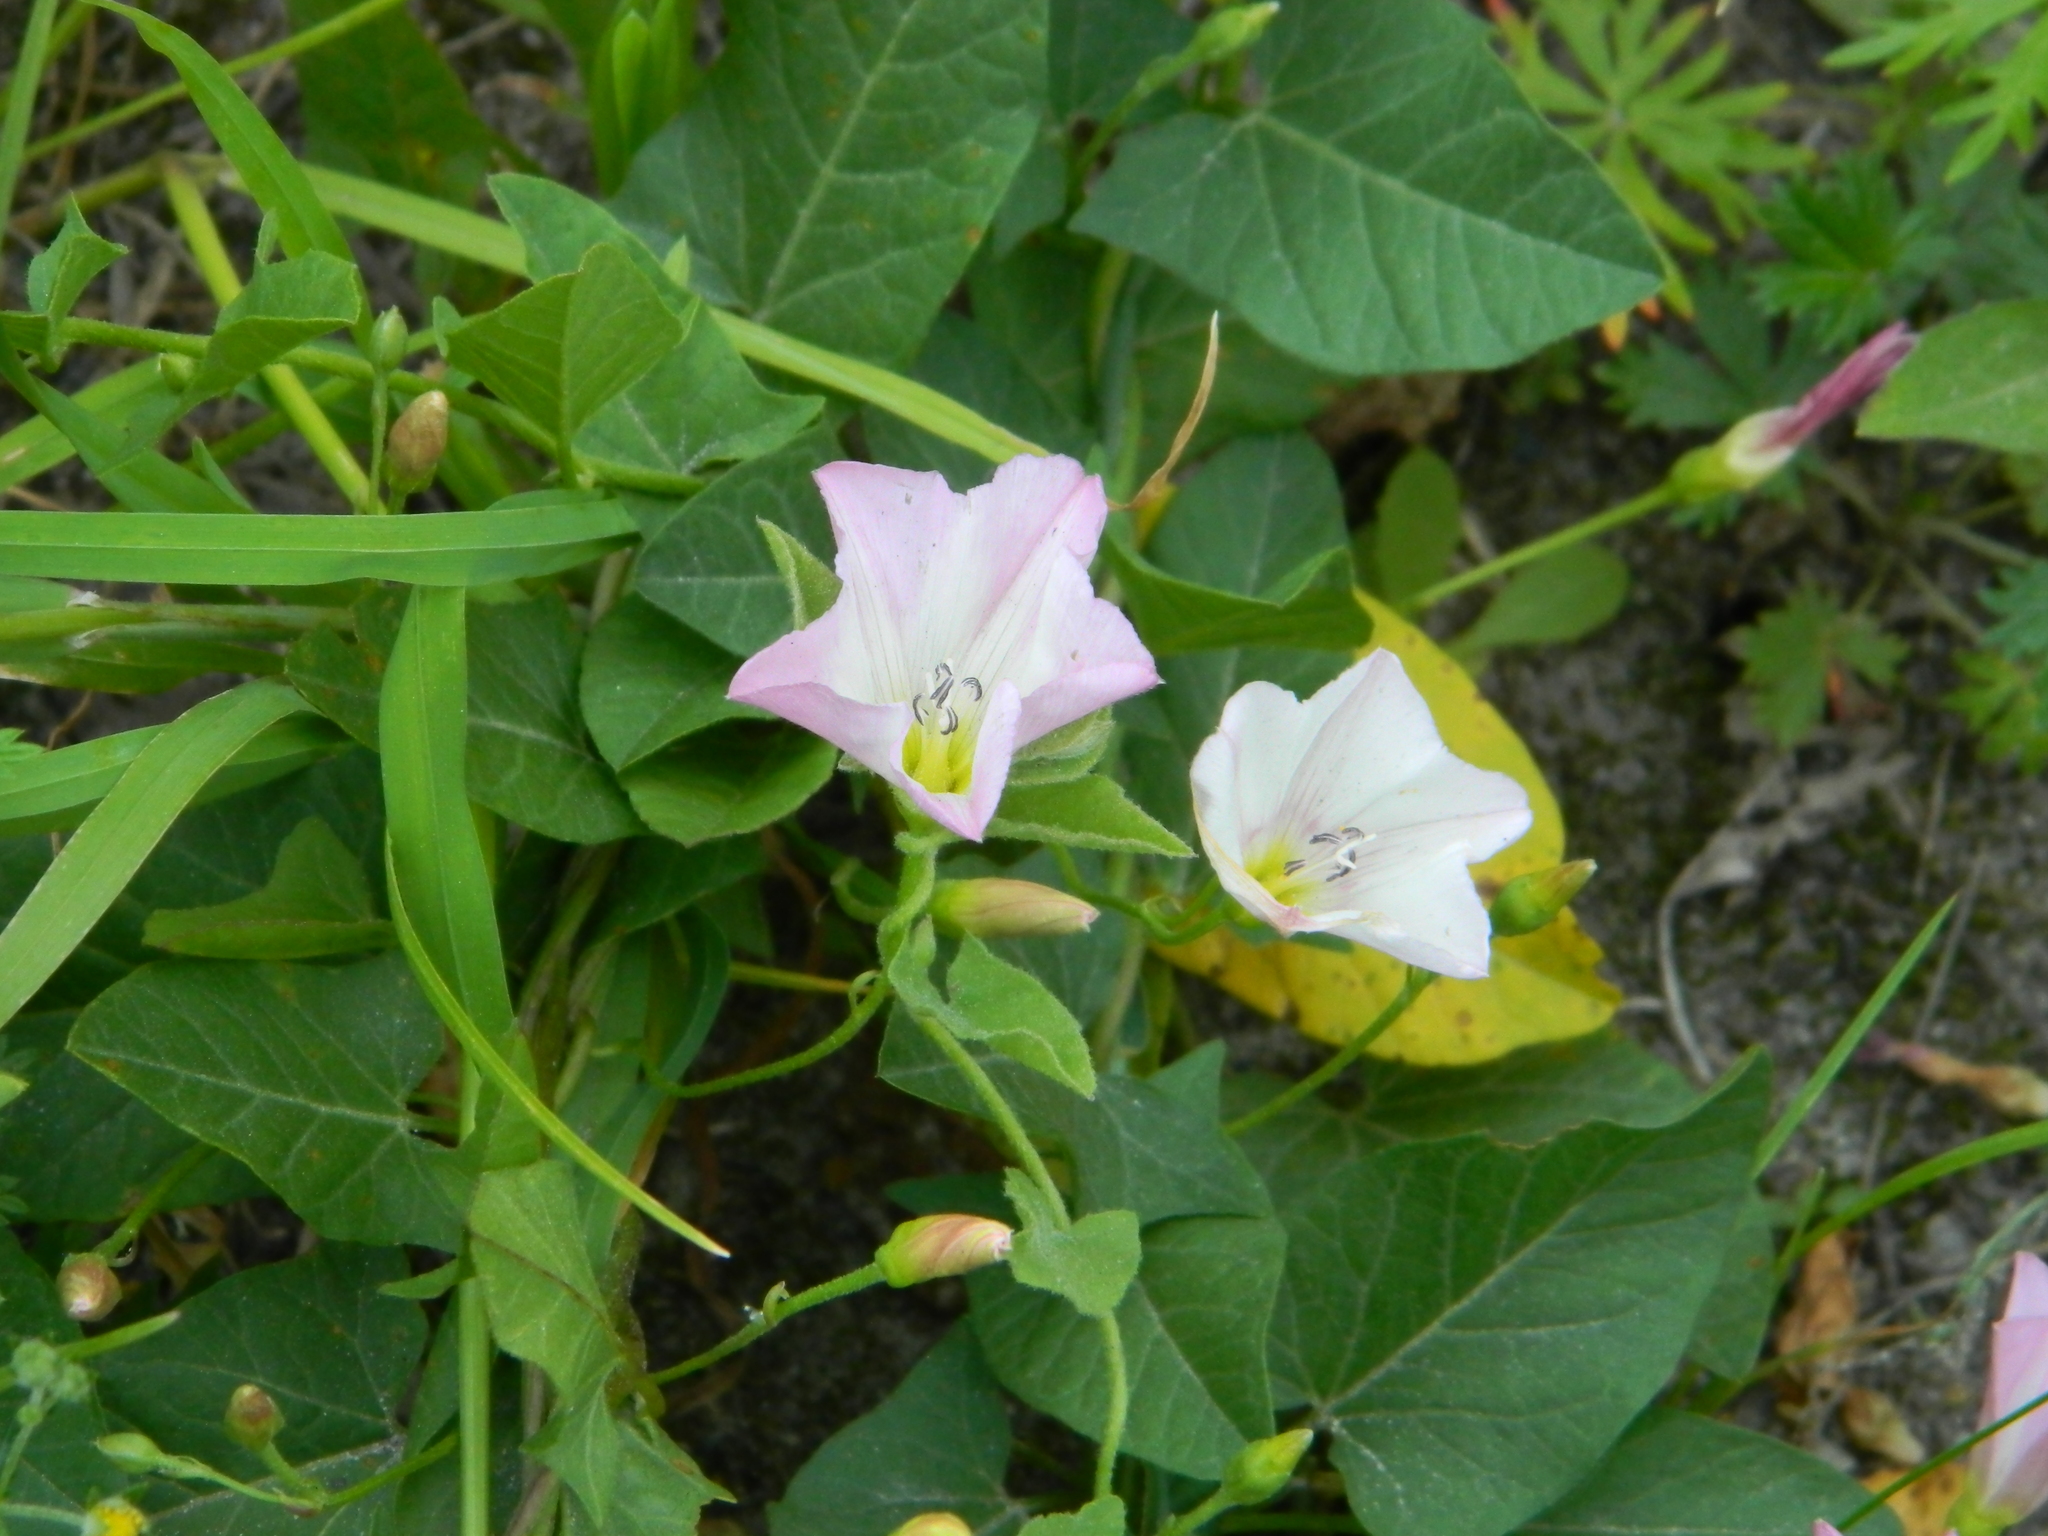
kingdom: Plantae
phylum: Tracheophyta
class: Magnoliopsida
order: Solanales
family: Convolvulaceae
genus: Convolvulus
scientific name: Convolvulus arvensis
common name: Field bindweed
